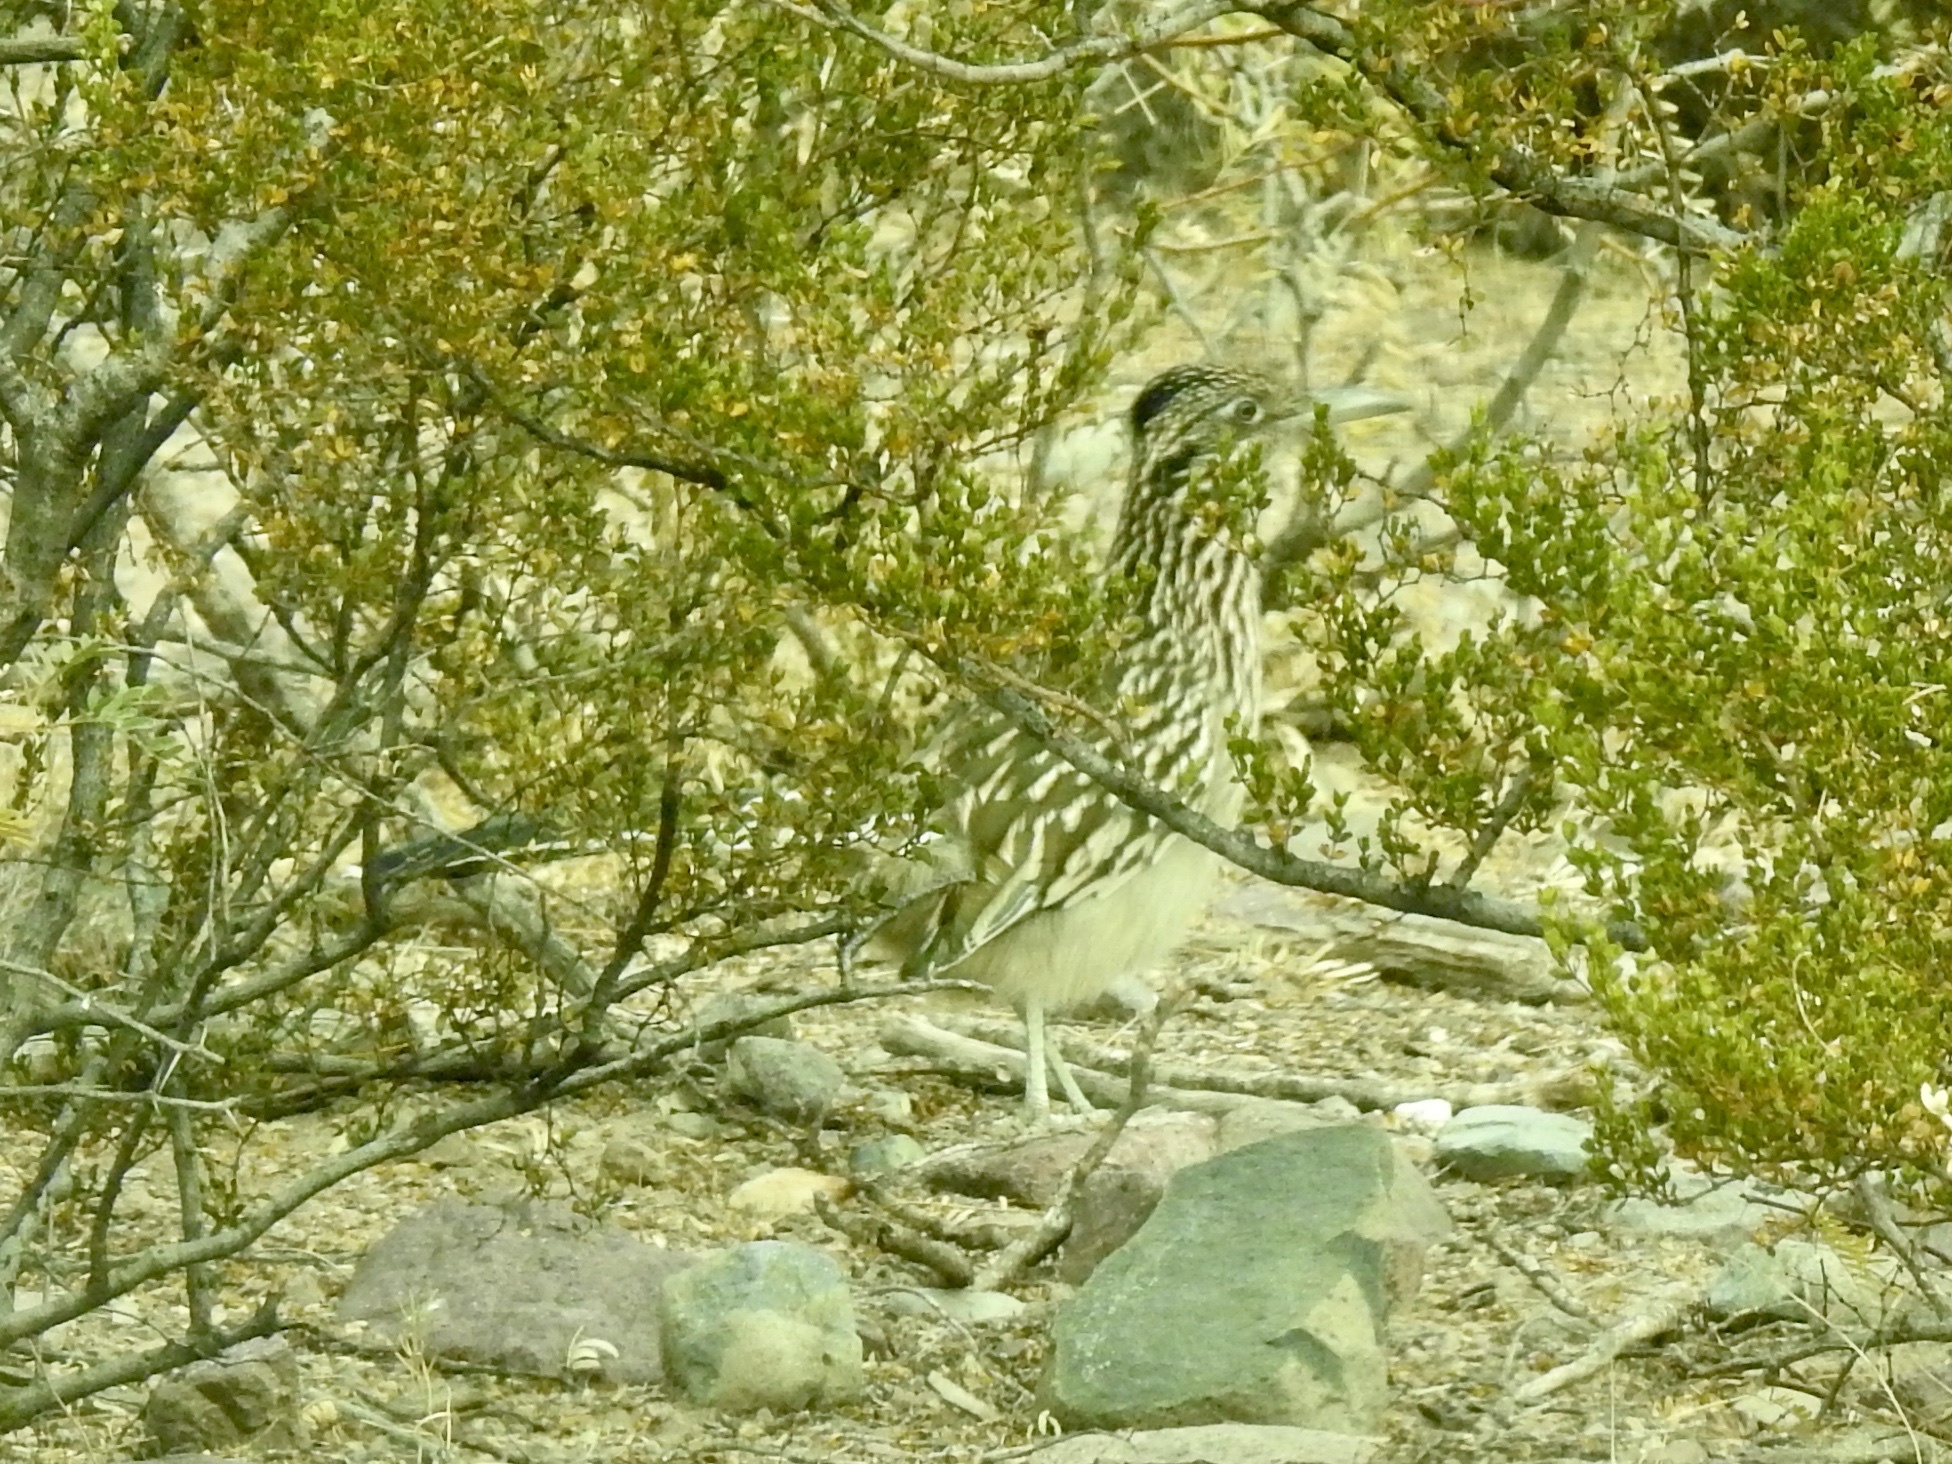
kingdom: Animalia
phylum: Chordata
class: Aves
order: Cuculiformes
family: Cuculidae
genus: Geococcyx
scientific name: Geococcyx californianus
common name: Greater roadrunner
